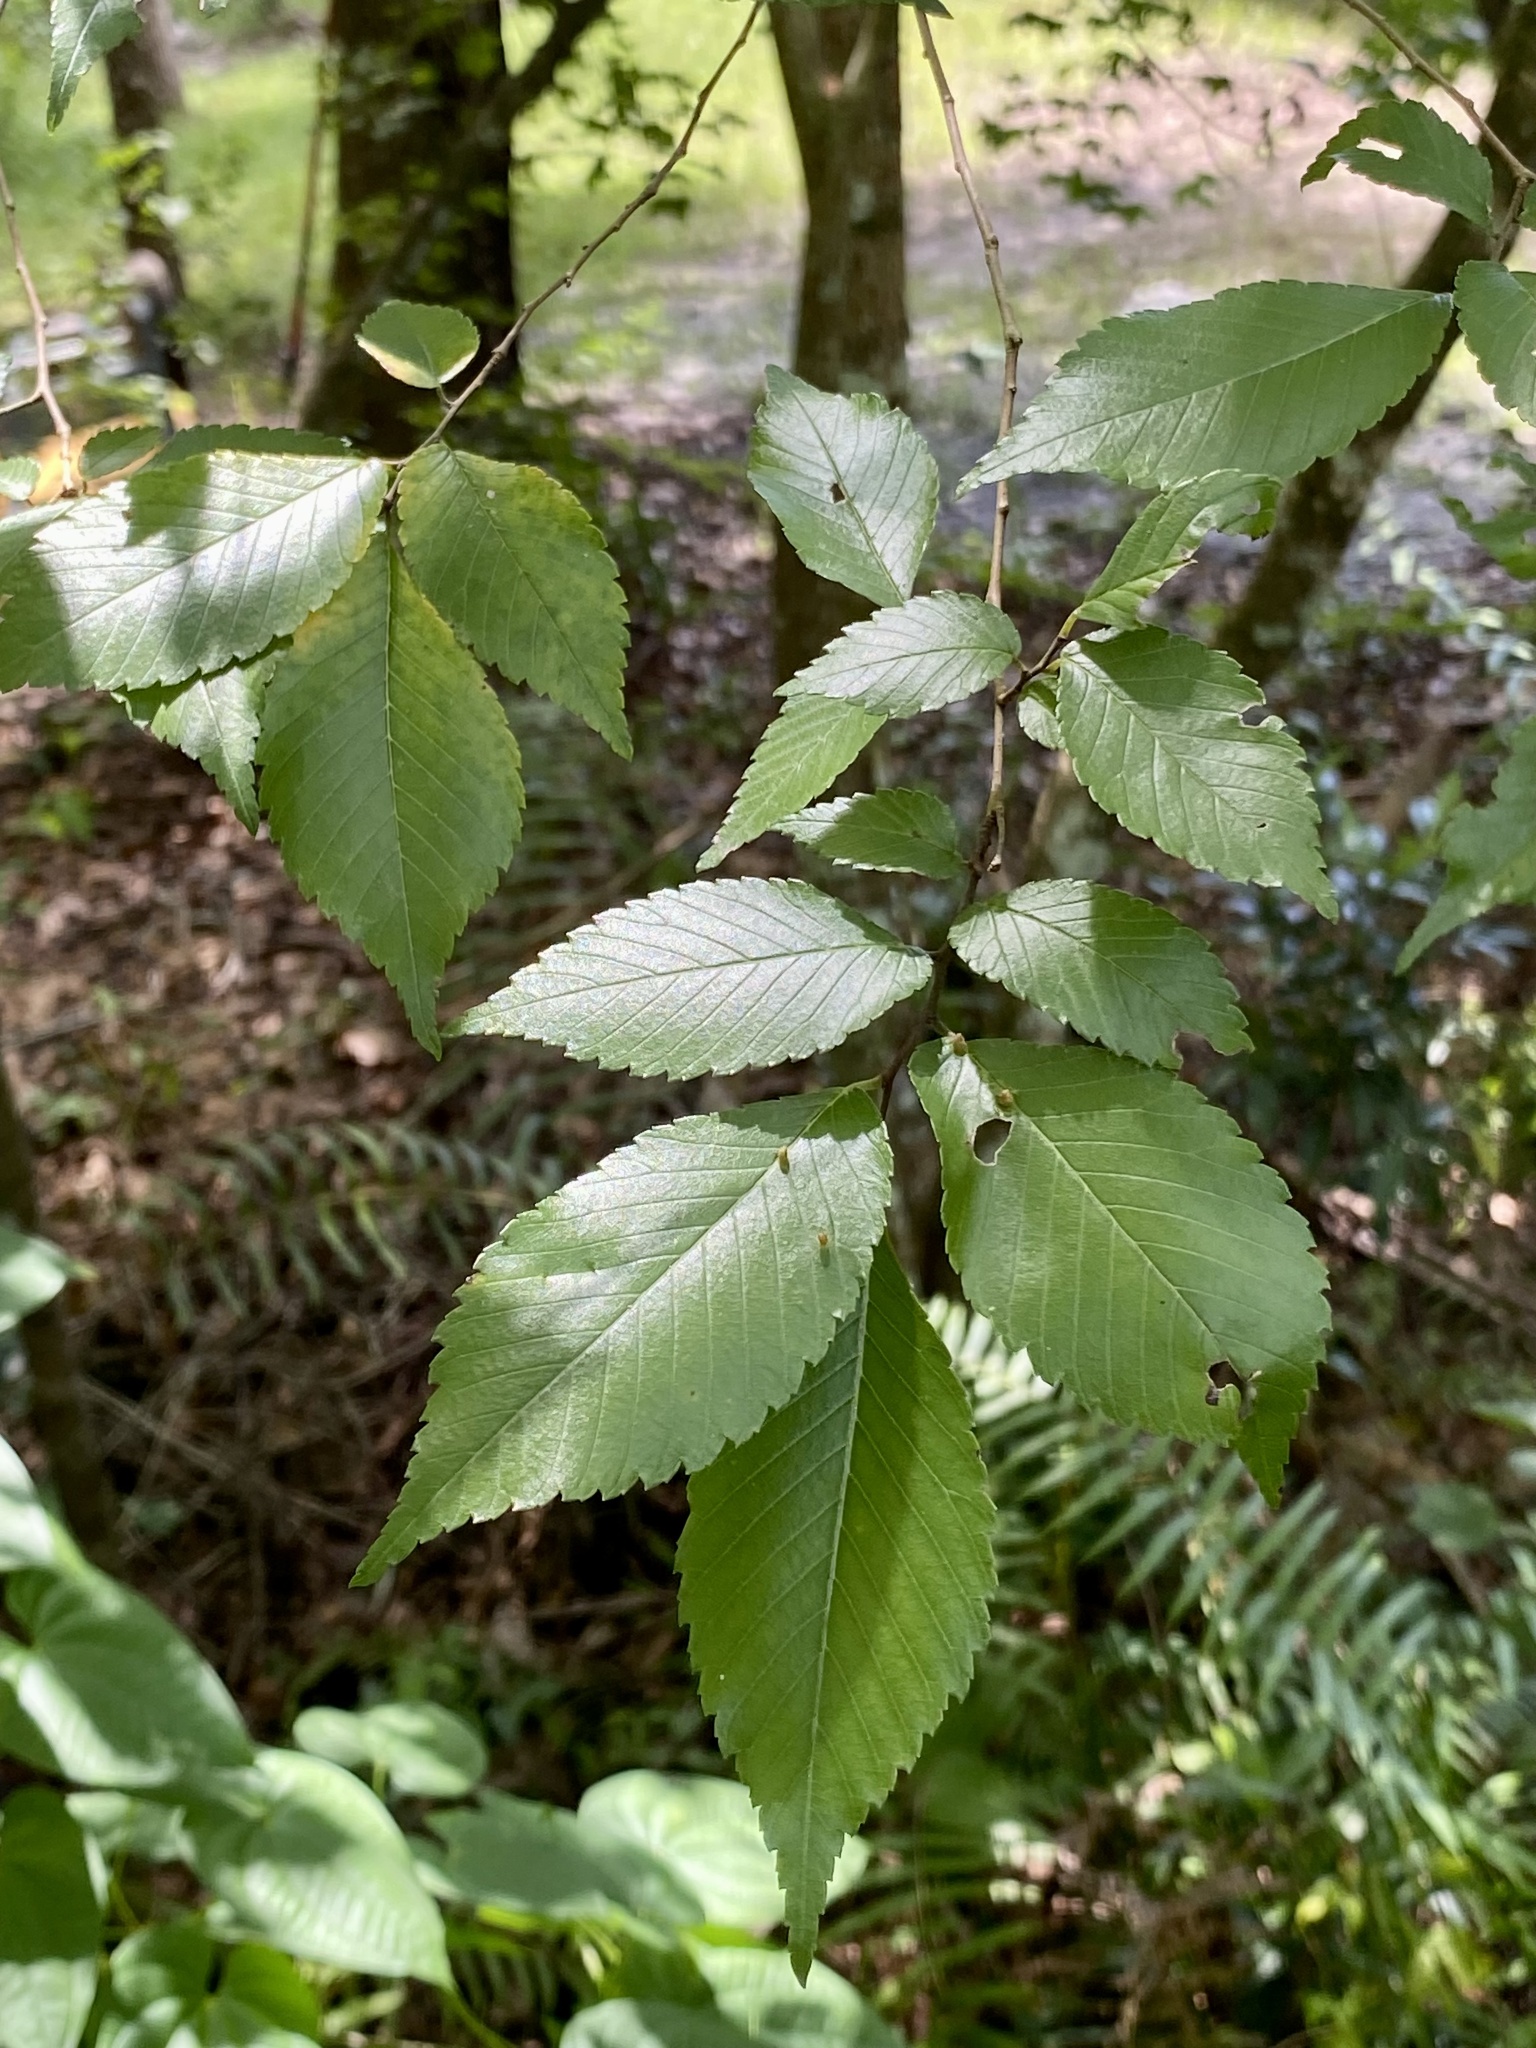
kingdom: Plantae
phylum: Tracheophyta
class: Magnoliopsida
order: Rosales
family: Ulmaceae
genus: Ulmus
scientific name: Ulmus americana
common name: American elm
